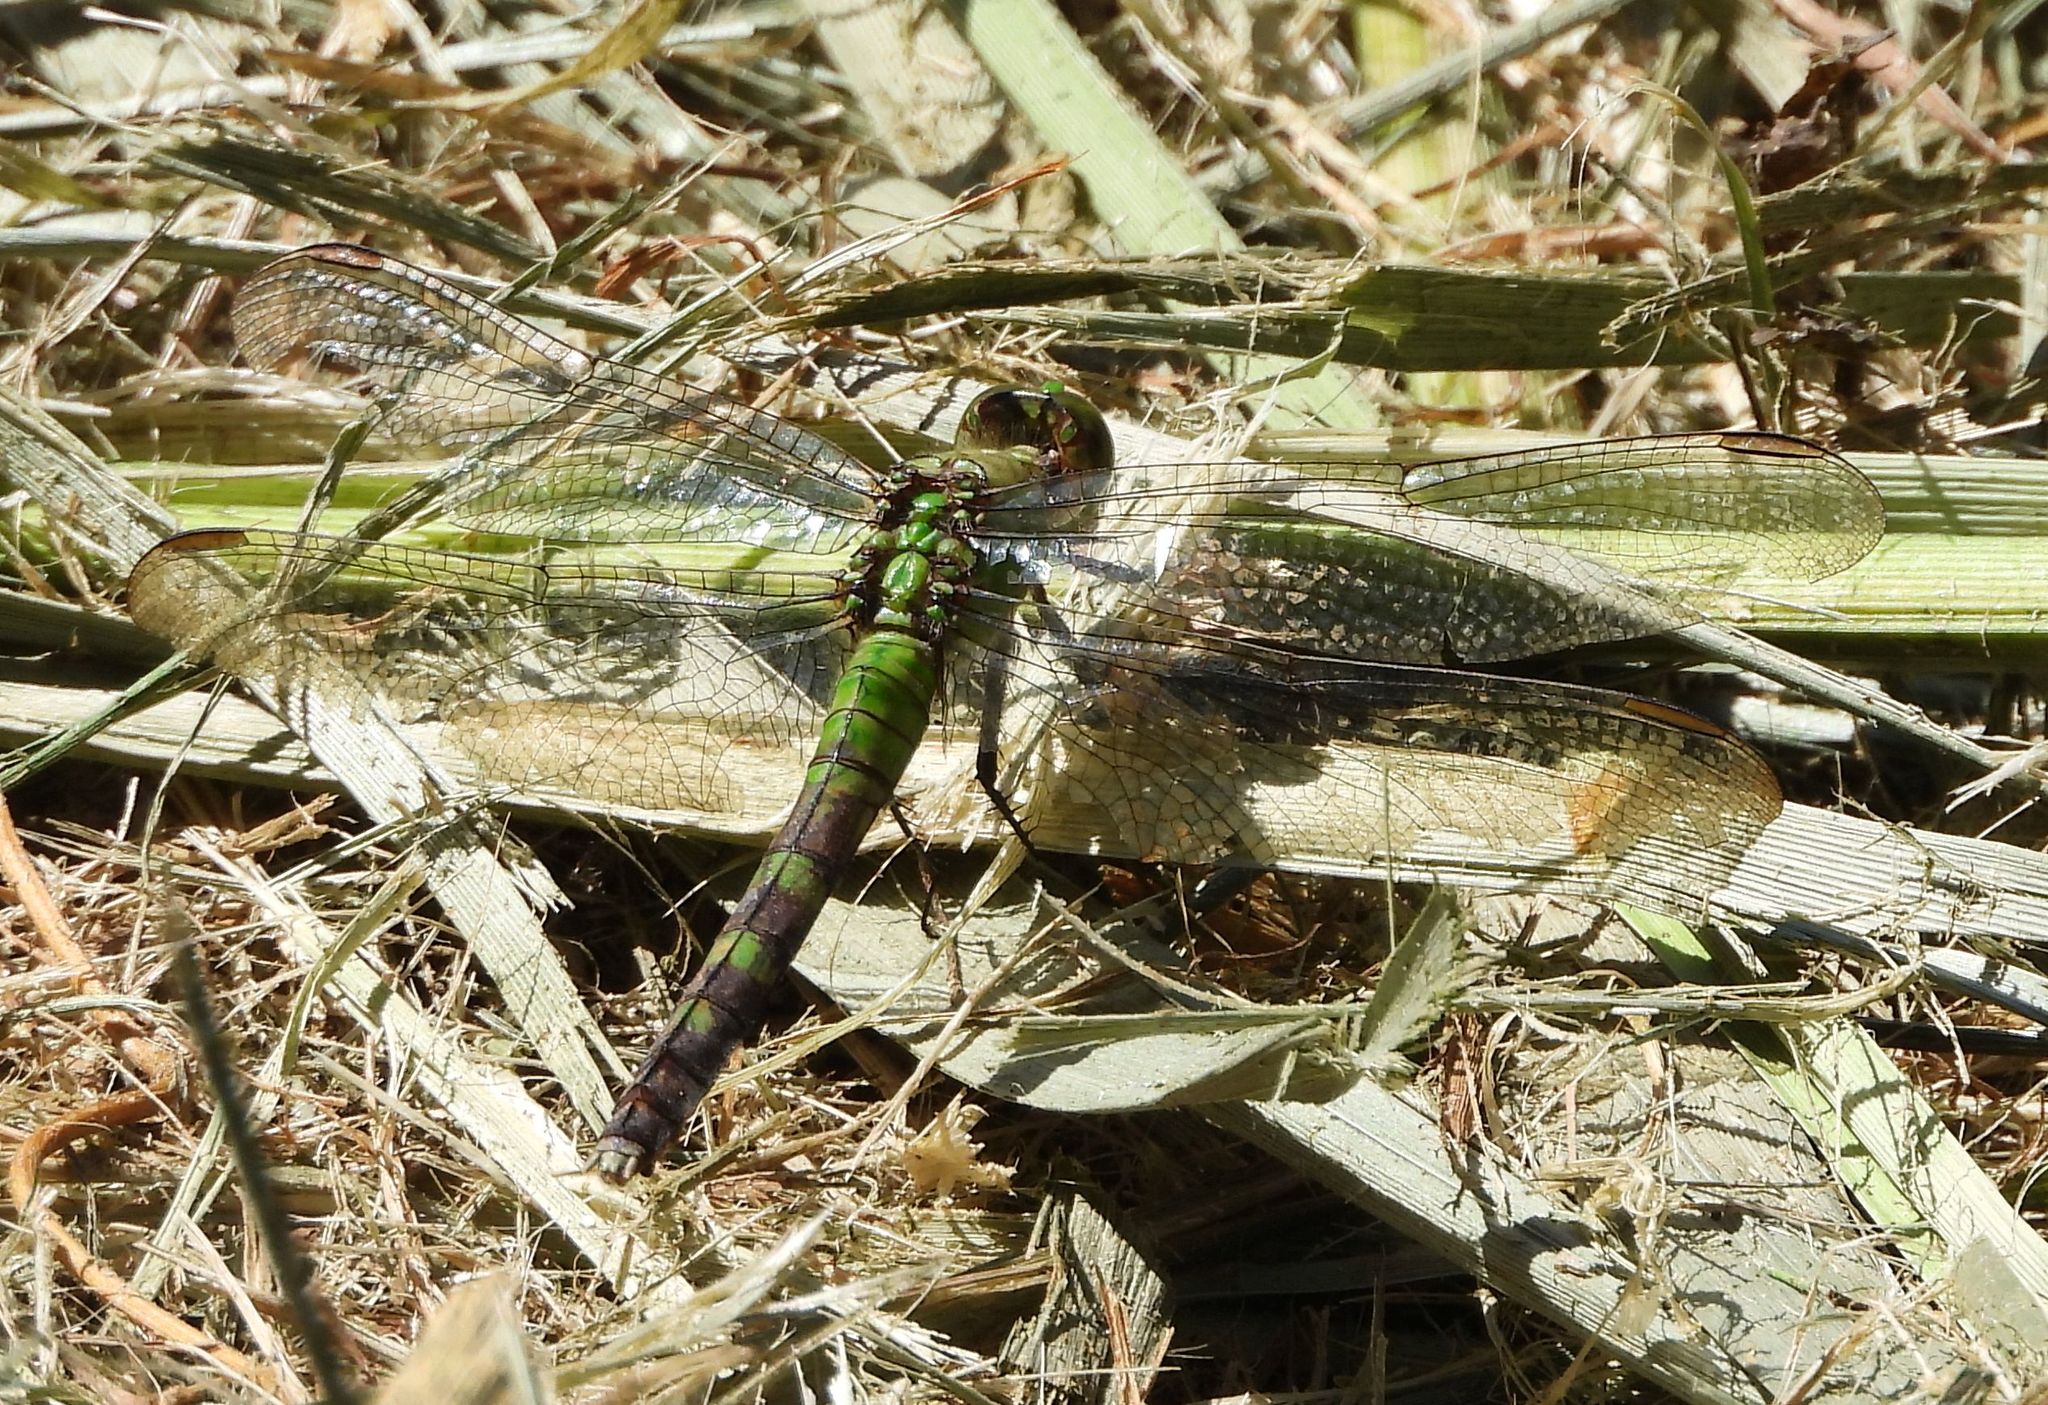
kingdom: Animalia
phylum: Arthropoda
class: Insecta
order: Odonata
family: Libellulidae
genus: Erythemis
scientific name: Erythemis simplicicollis
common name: Eastern pondhawk
